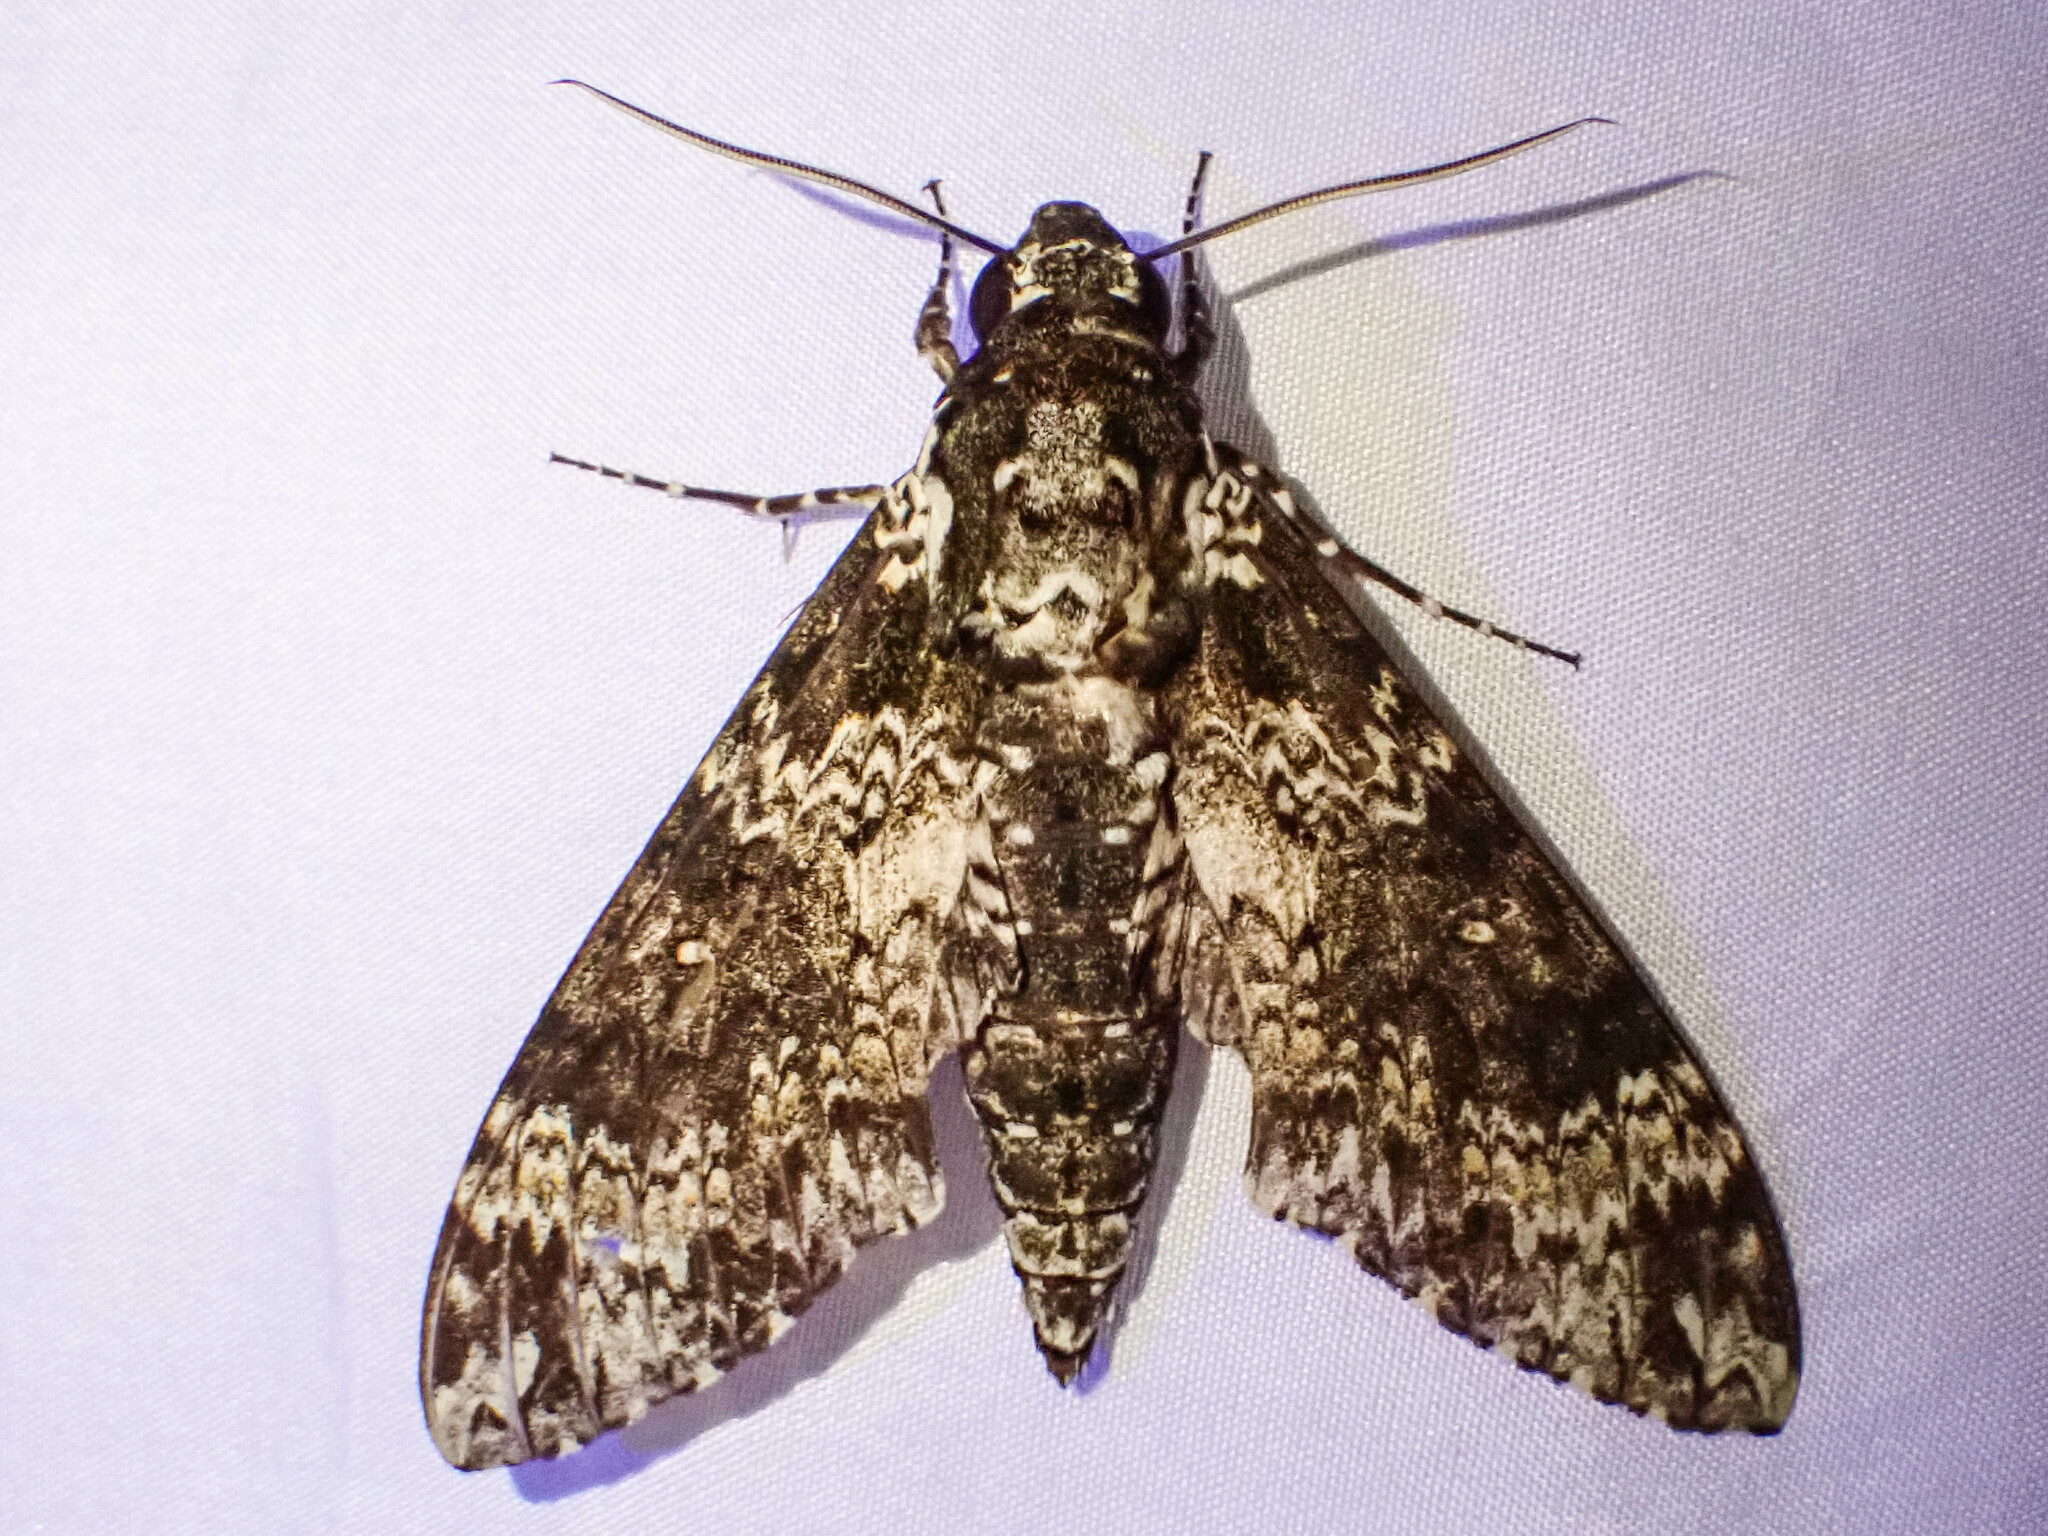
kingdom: Animalia
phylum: Arthropoda
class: Insecta
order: Lepidoptera
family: Sphingidae
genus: Manduca
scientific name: Manduca rustica
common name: Rustic sphinx
